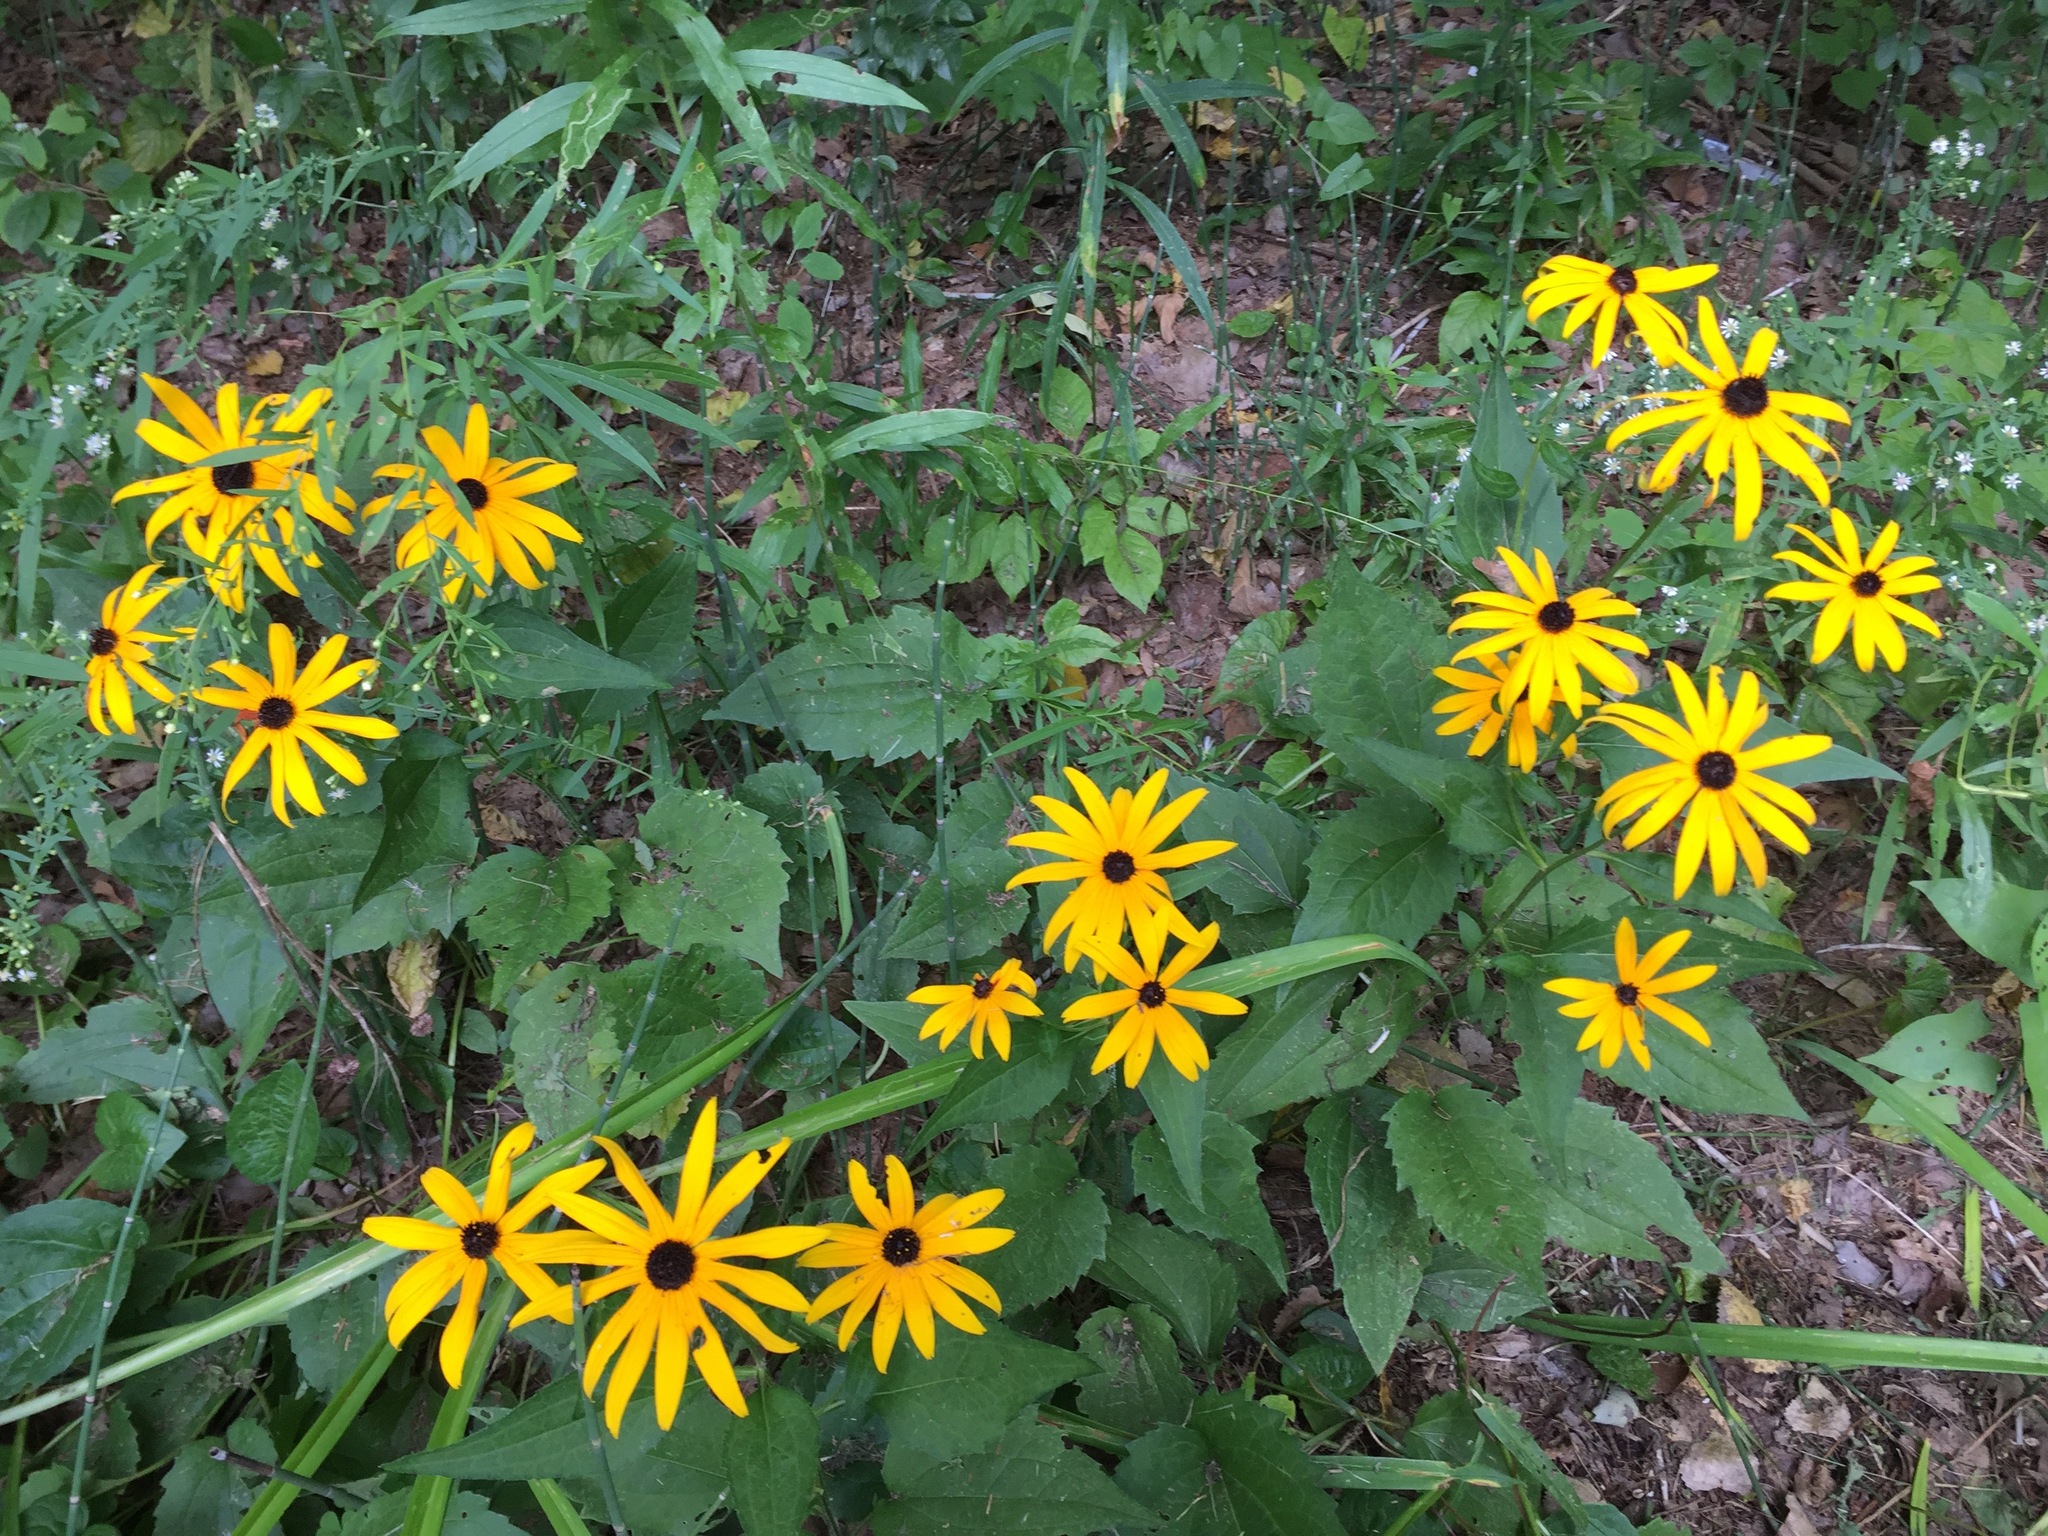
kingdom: Plantae
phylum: Tracheophyta
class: Magnoliopsida
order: Asterales
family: Asteraceae
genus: Rudbeckia
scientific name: Rudbeckia hirta
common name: Black-eyed-susan
